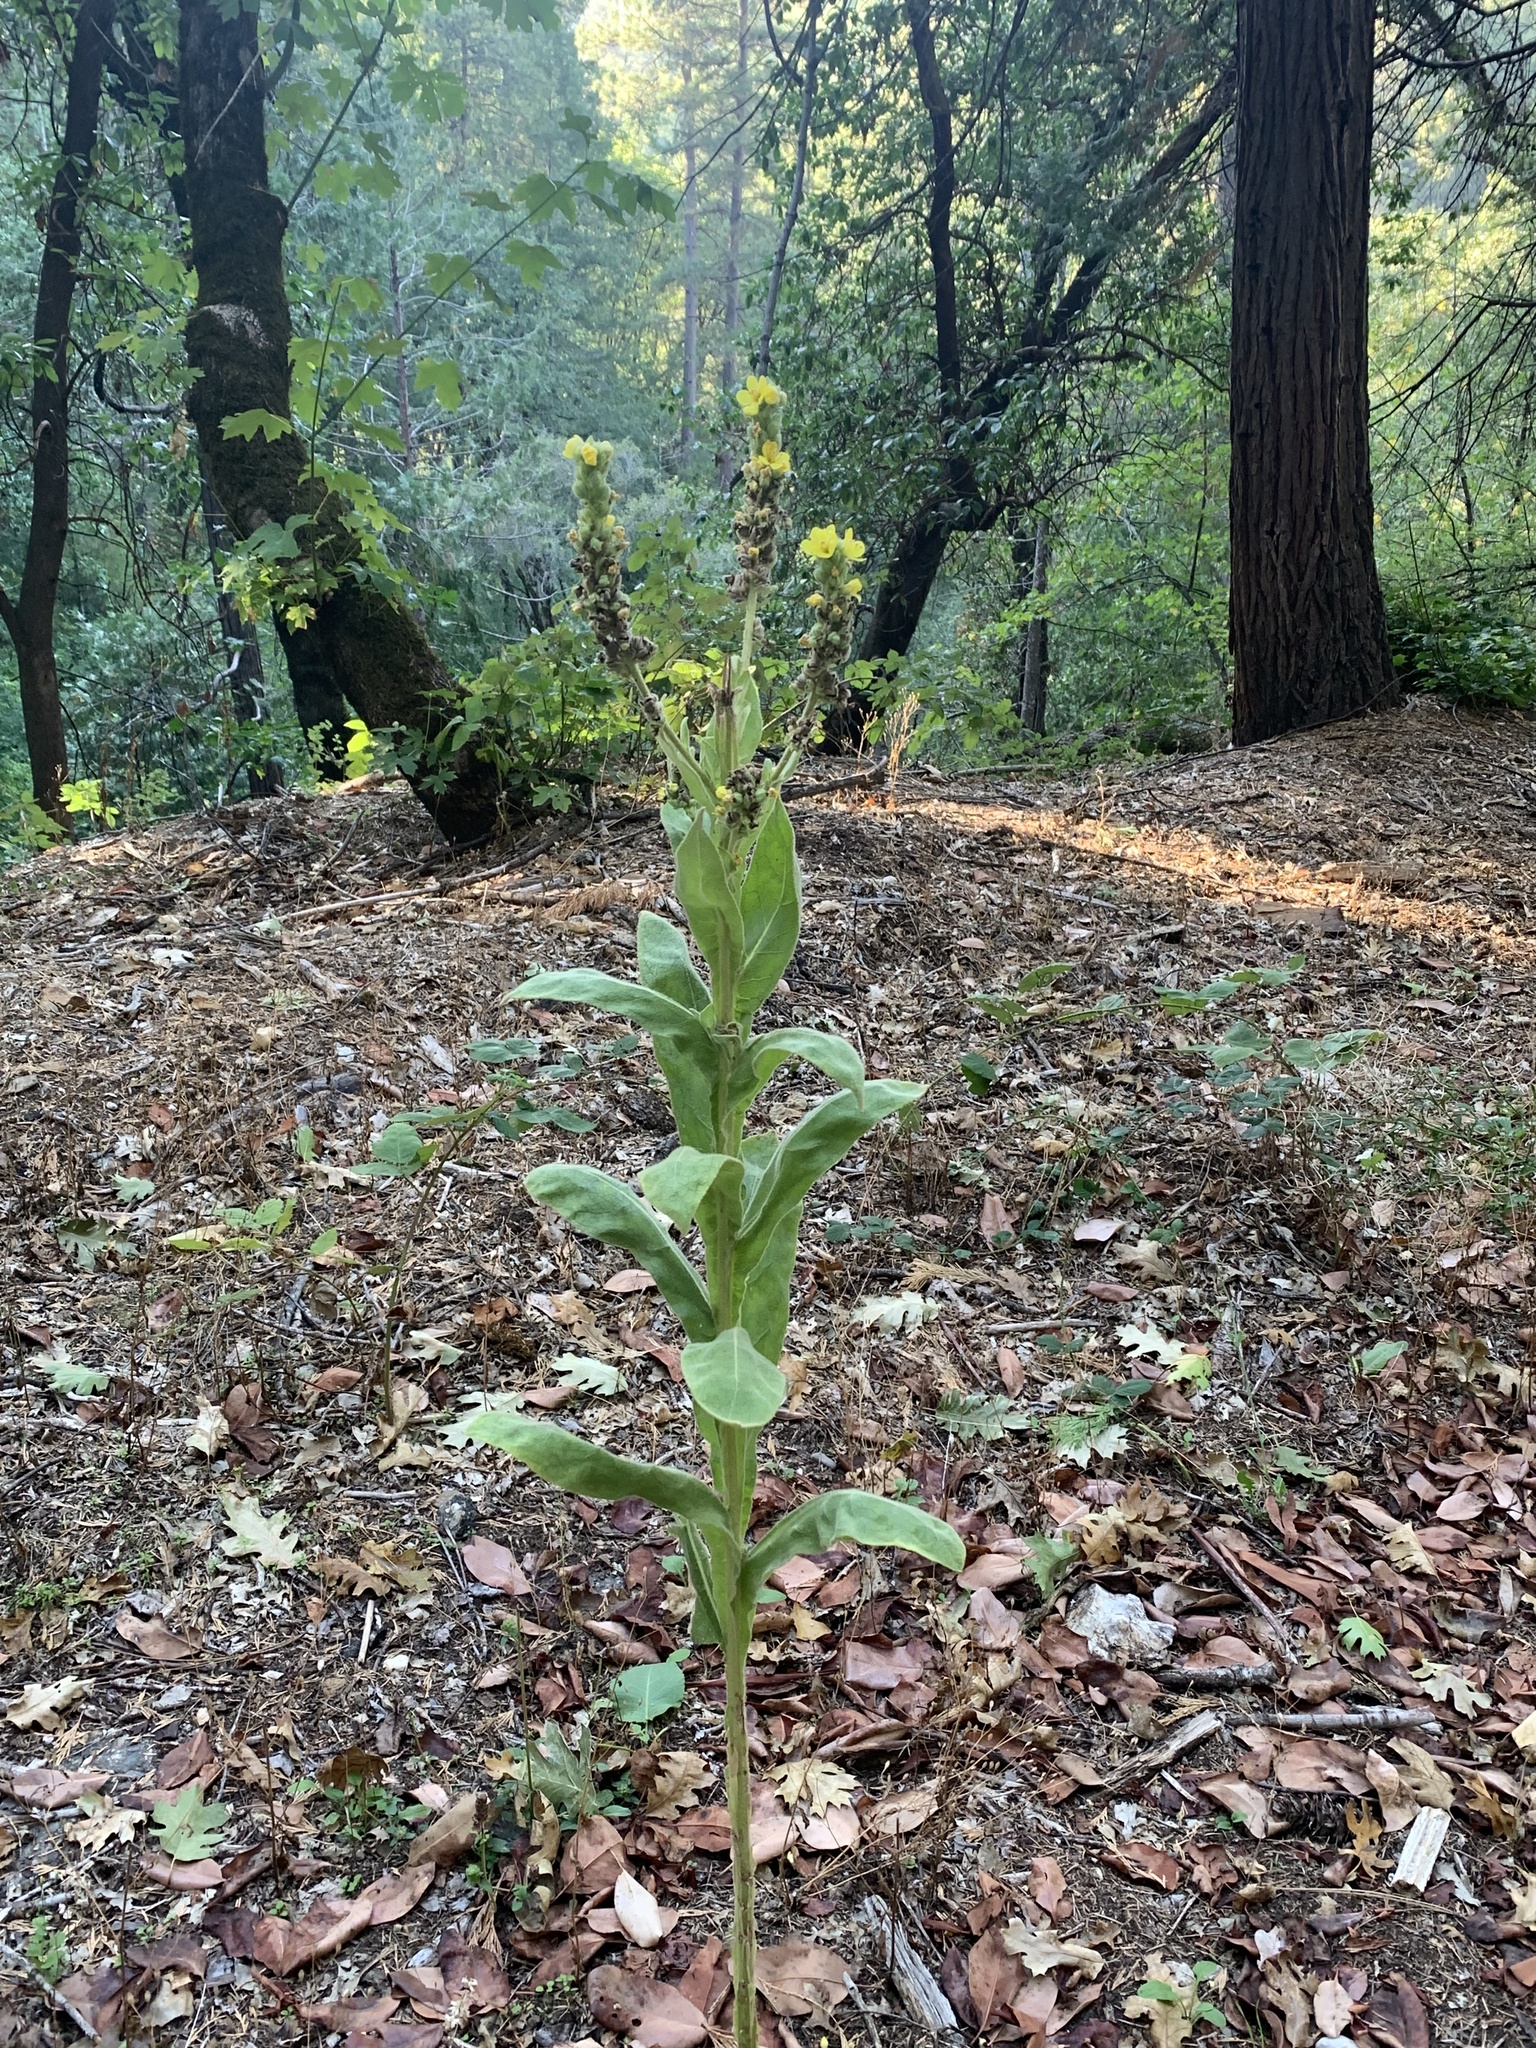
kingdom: Plantae
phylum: Tracheophyta
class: Magnoliopsida
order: Lamiales
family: Scrophulariaceae
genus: Verbascum
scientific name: Verbascum thapsus
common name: Common mullein
